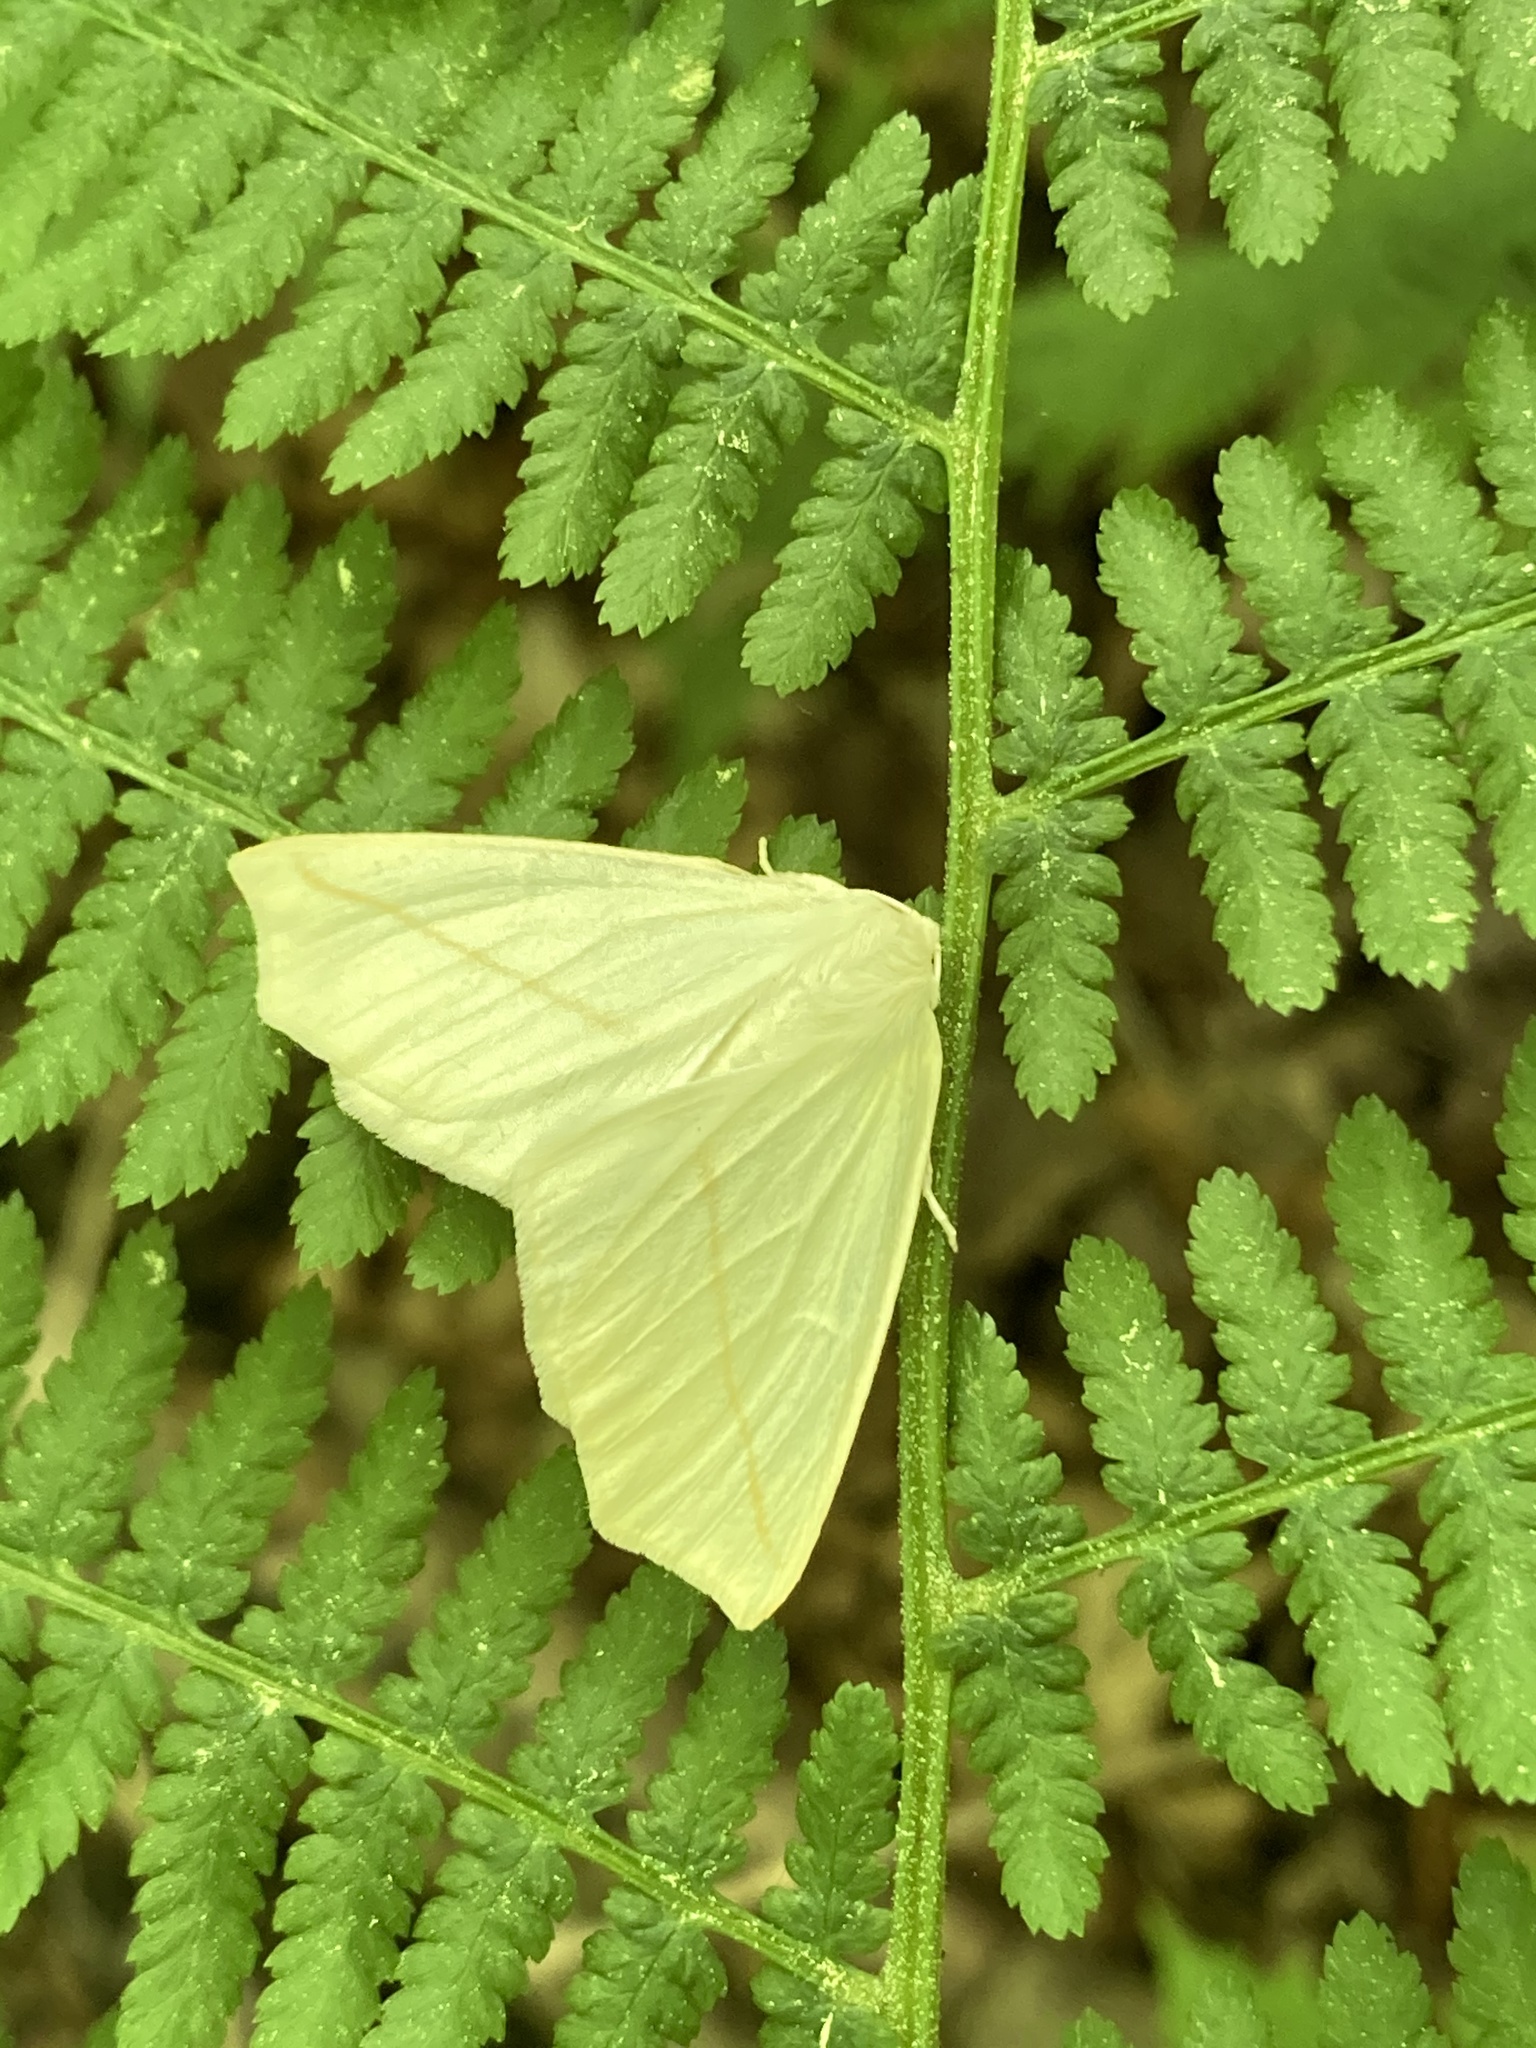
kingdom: Animalia
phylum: Arthropoda
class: Insecta
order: Lepidoptera
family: Geometridae
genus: Tetracis
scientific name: Tetracis cachexiata
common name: White slant-line
